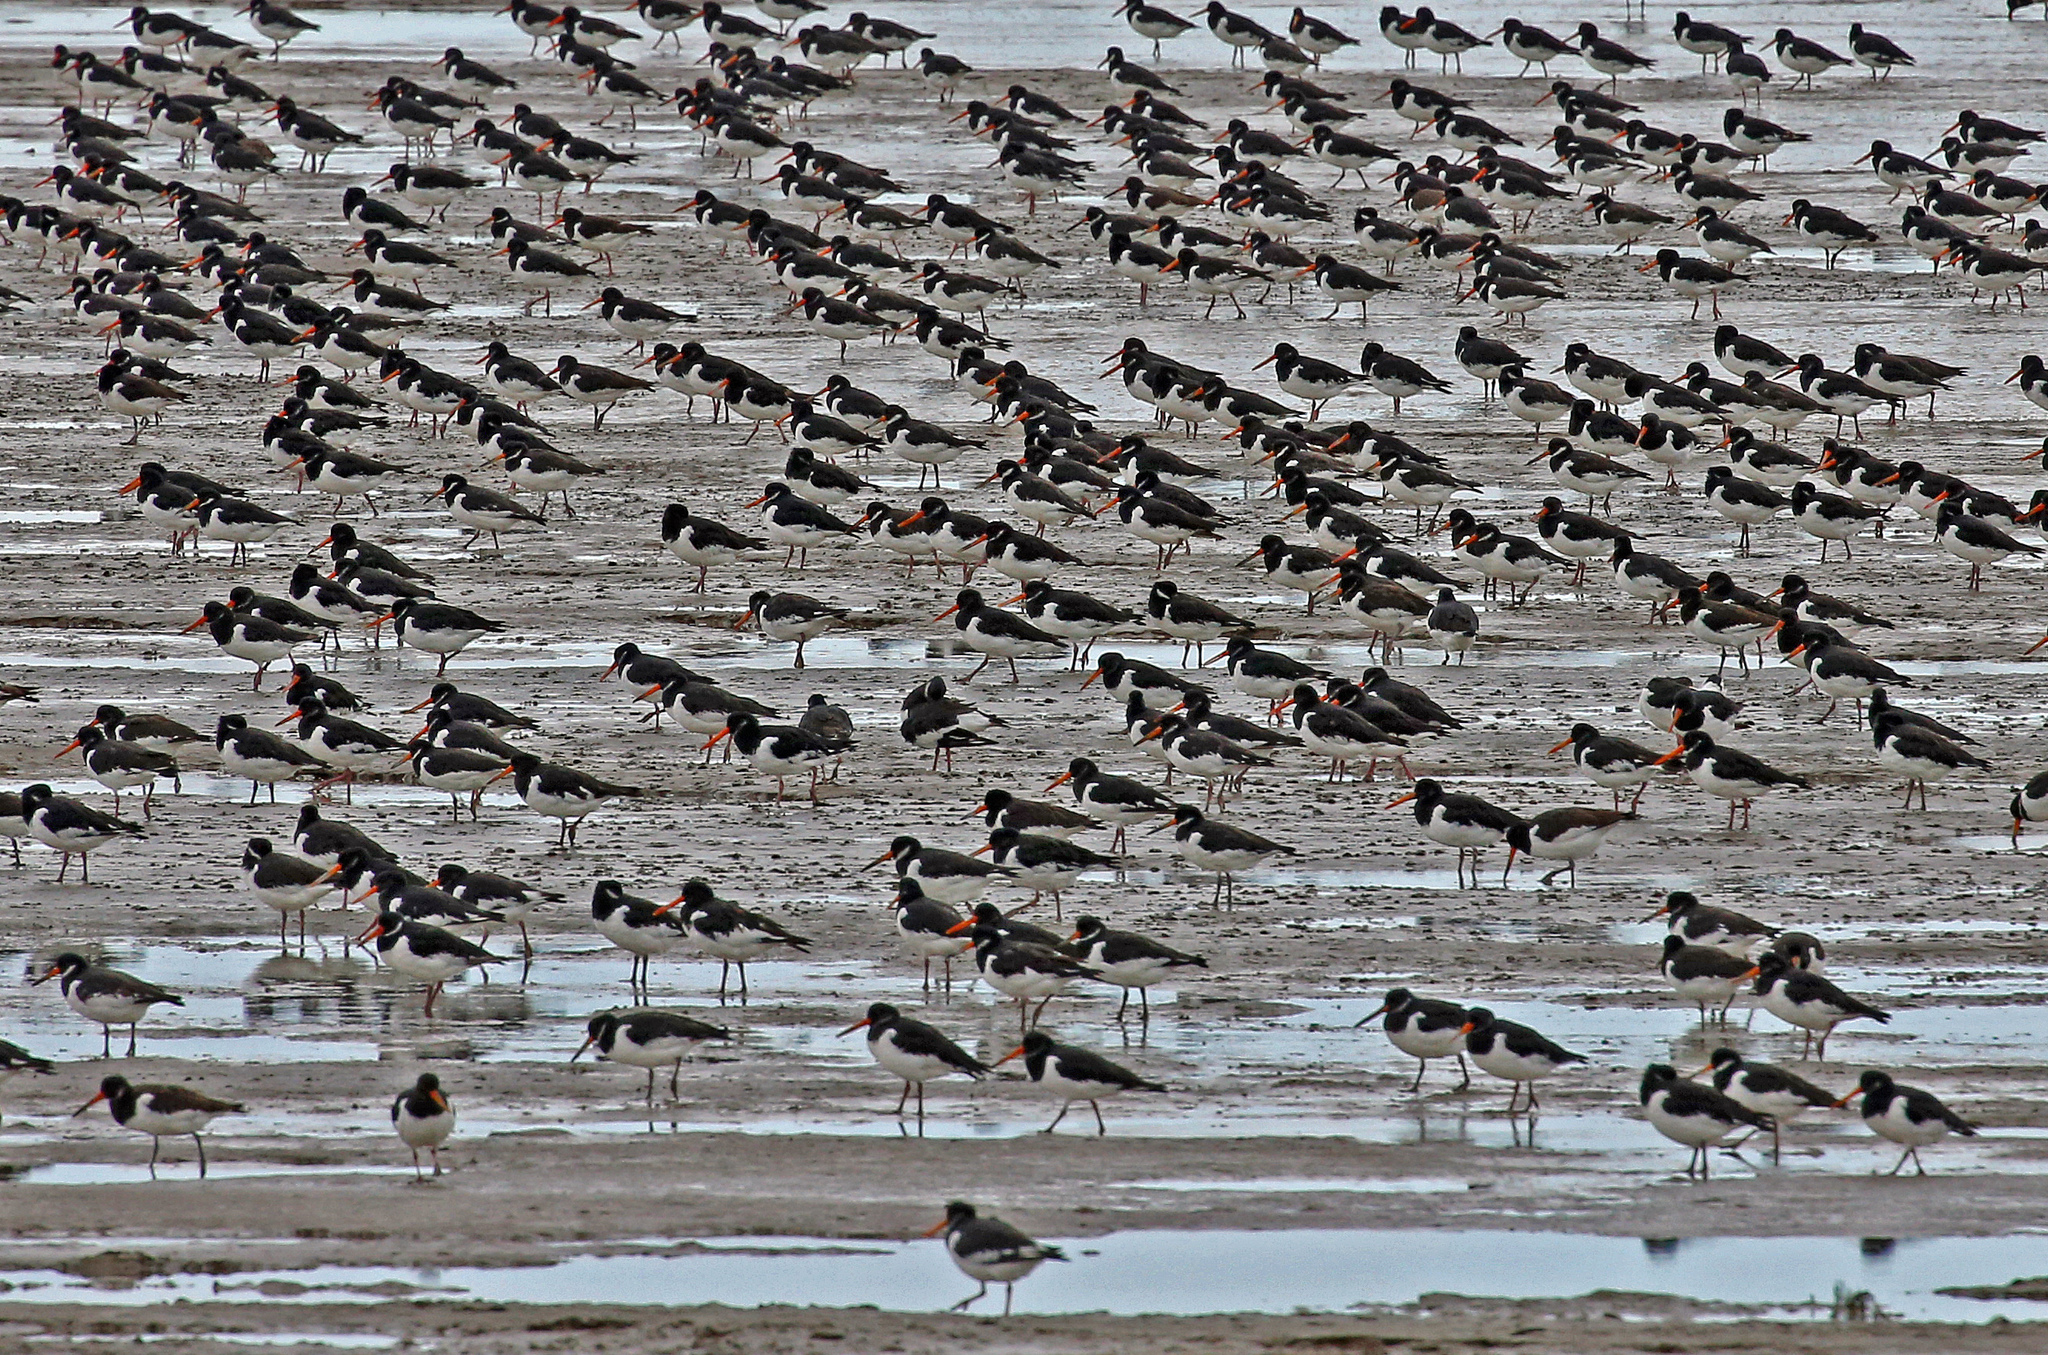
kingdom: Animalia
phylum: Chordata
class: Aves
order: Charadriiformes
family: Haematopodidae
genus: Haematopus
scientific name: Haematopus ostralegus
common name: Eurasian oystercatcher
